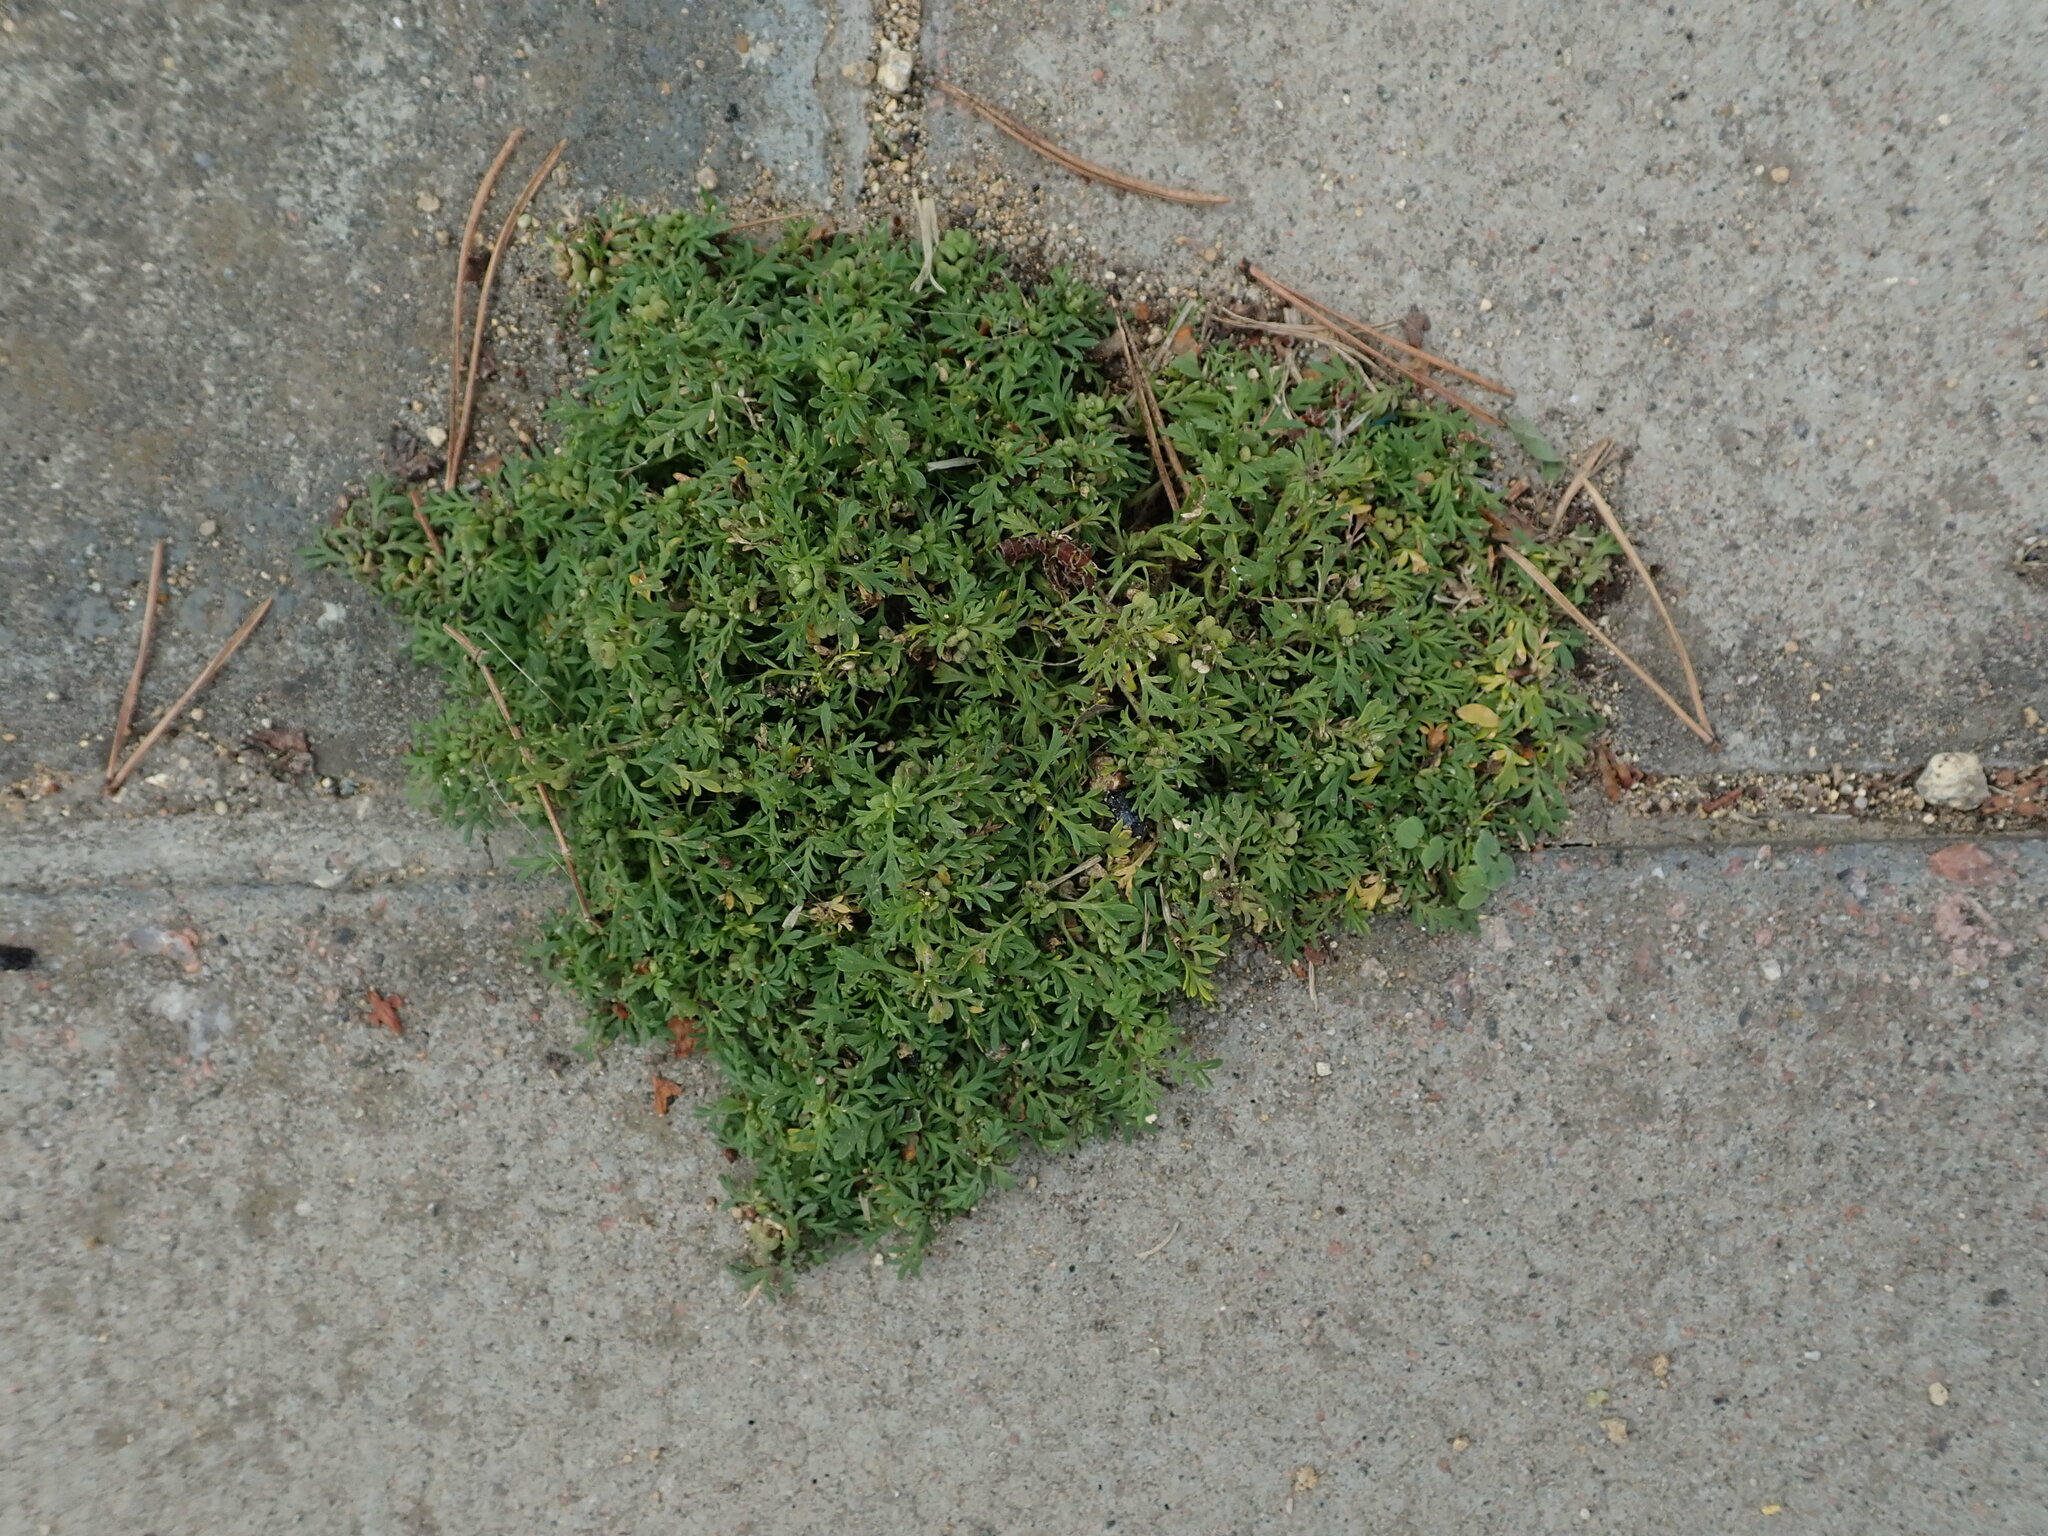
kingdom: Plantae
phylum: Tracheophyta
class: Magnoliopsida
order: Brassicales
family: Brassicaceae
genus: Lepidium
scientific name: Lepidium didymum
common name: Lesser swinecress
